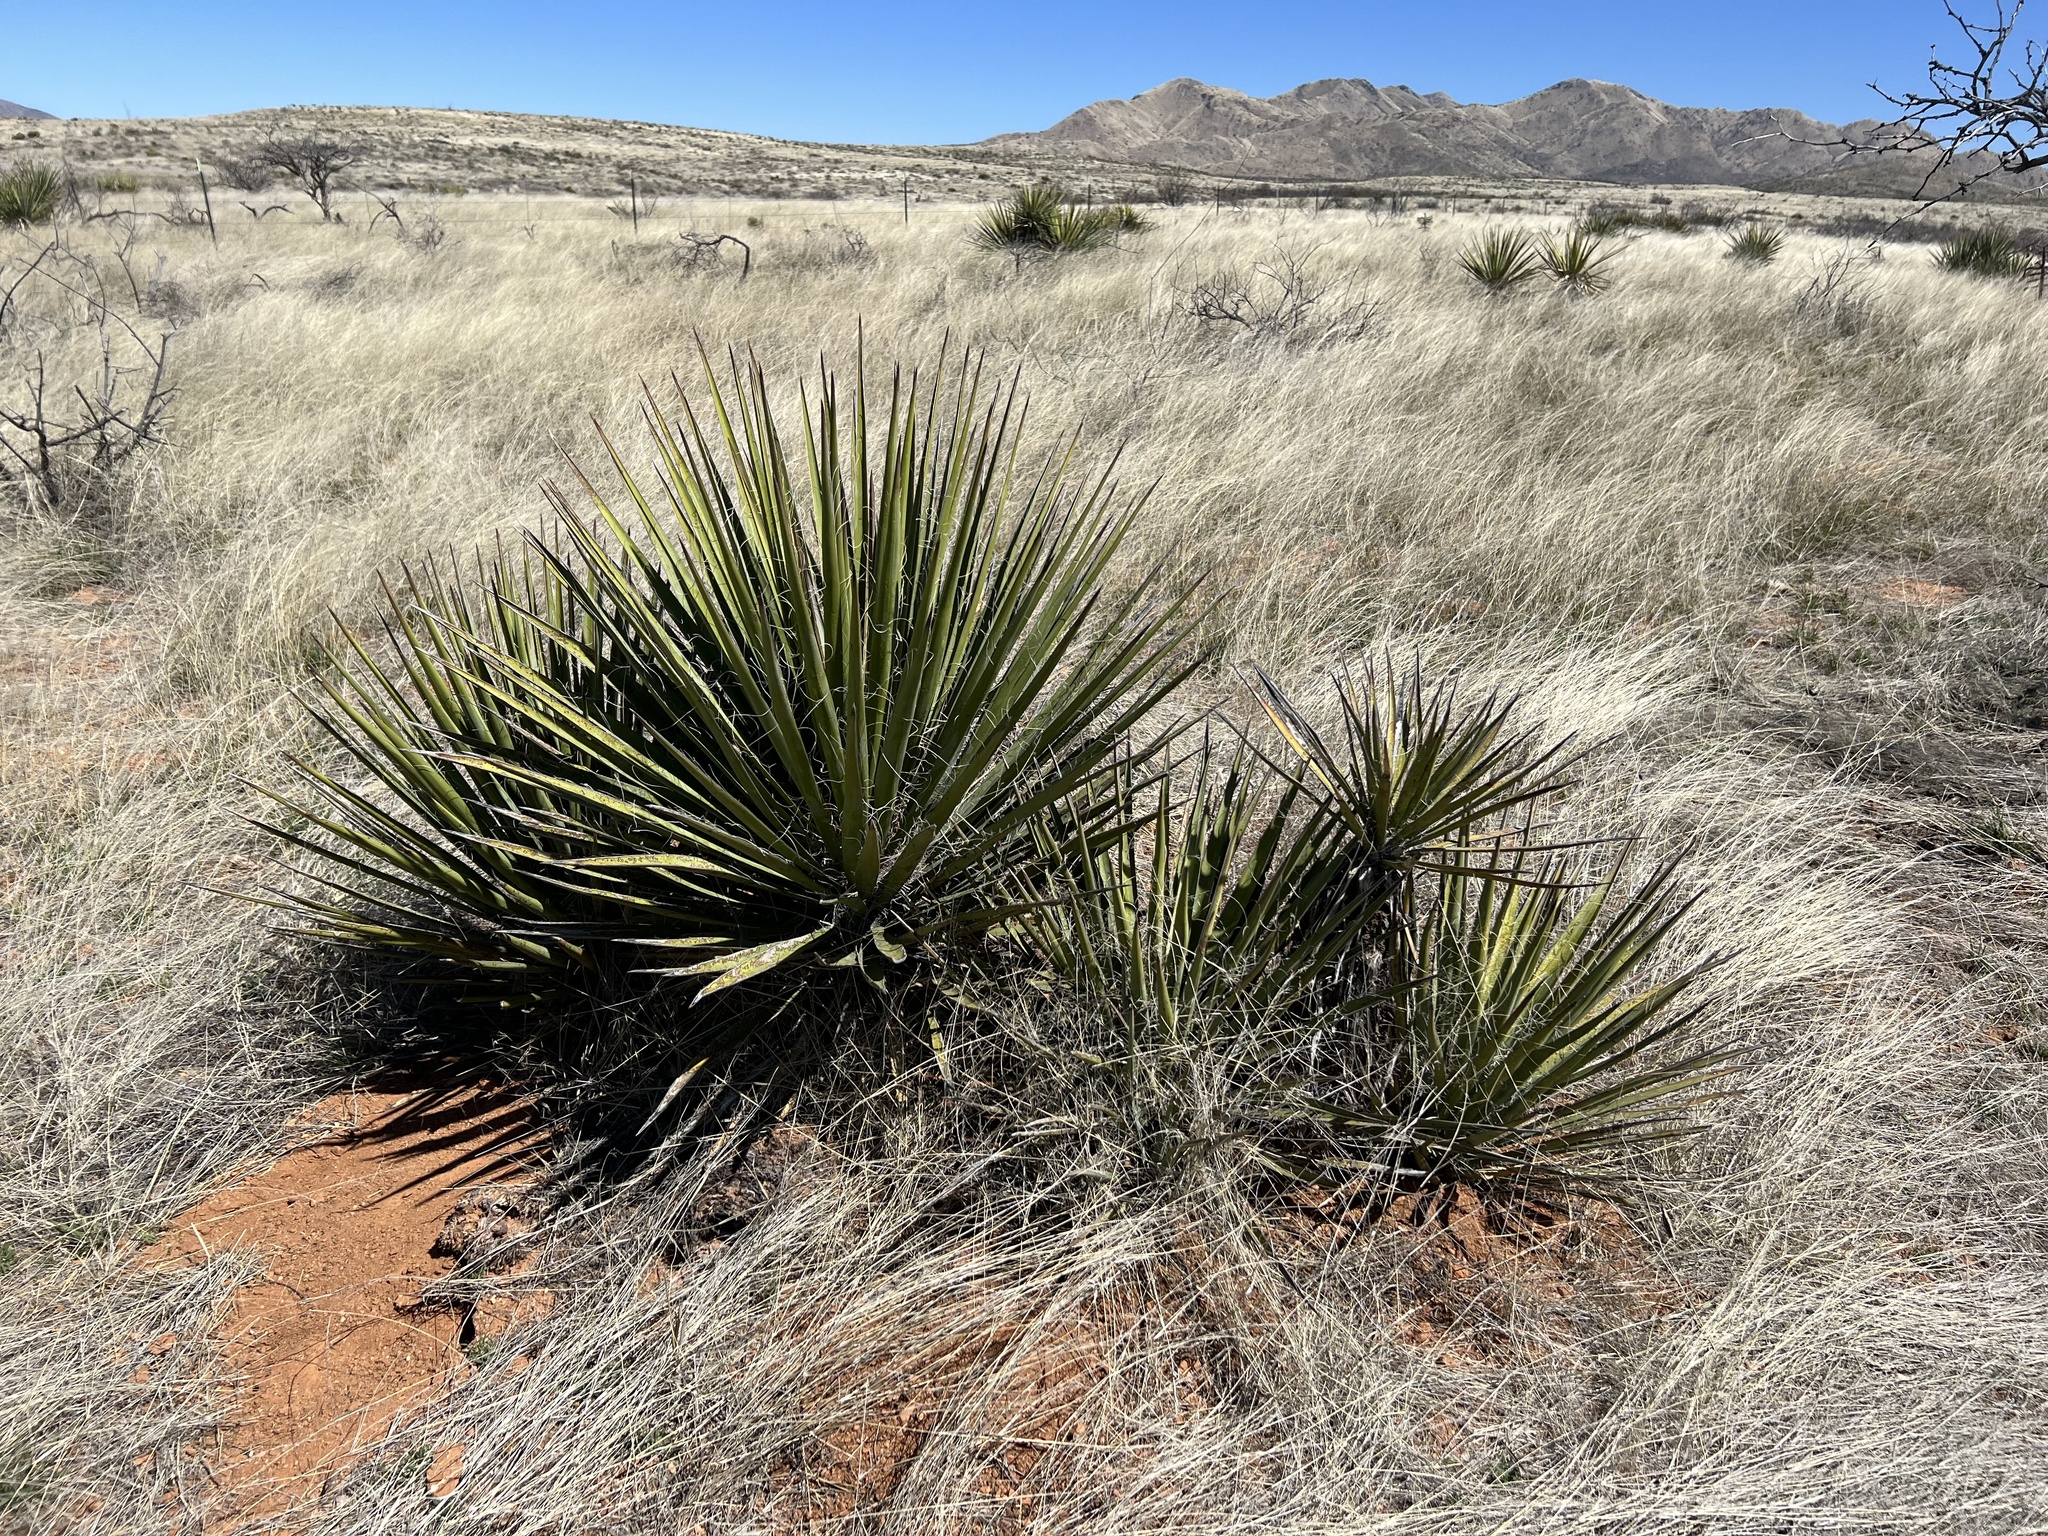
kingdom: Plantae
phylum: Tracheophyta
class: Liliopsida
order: Asparagales
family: Asparagaceae
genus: Yucca
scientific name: Yucca baccata
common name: Banana yucca
